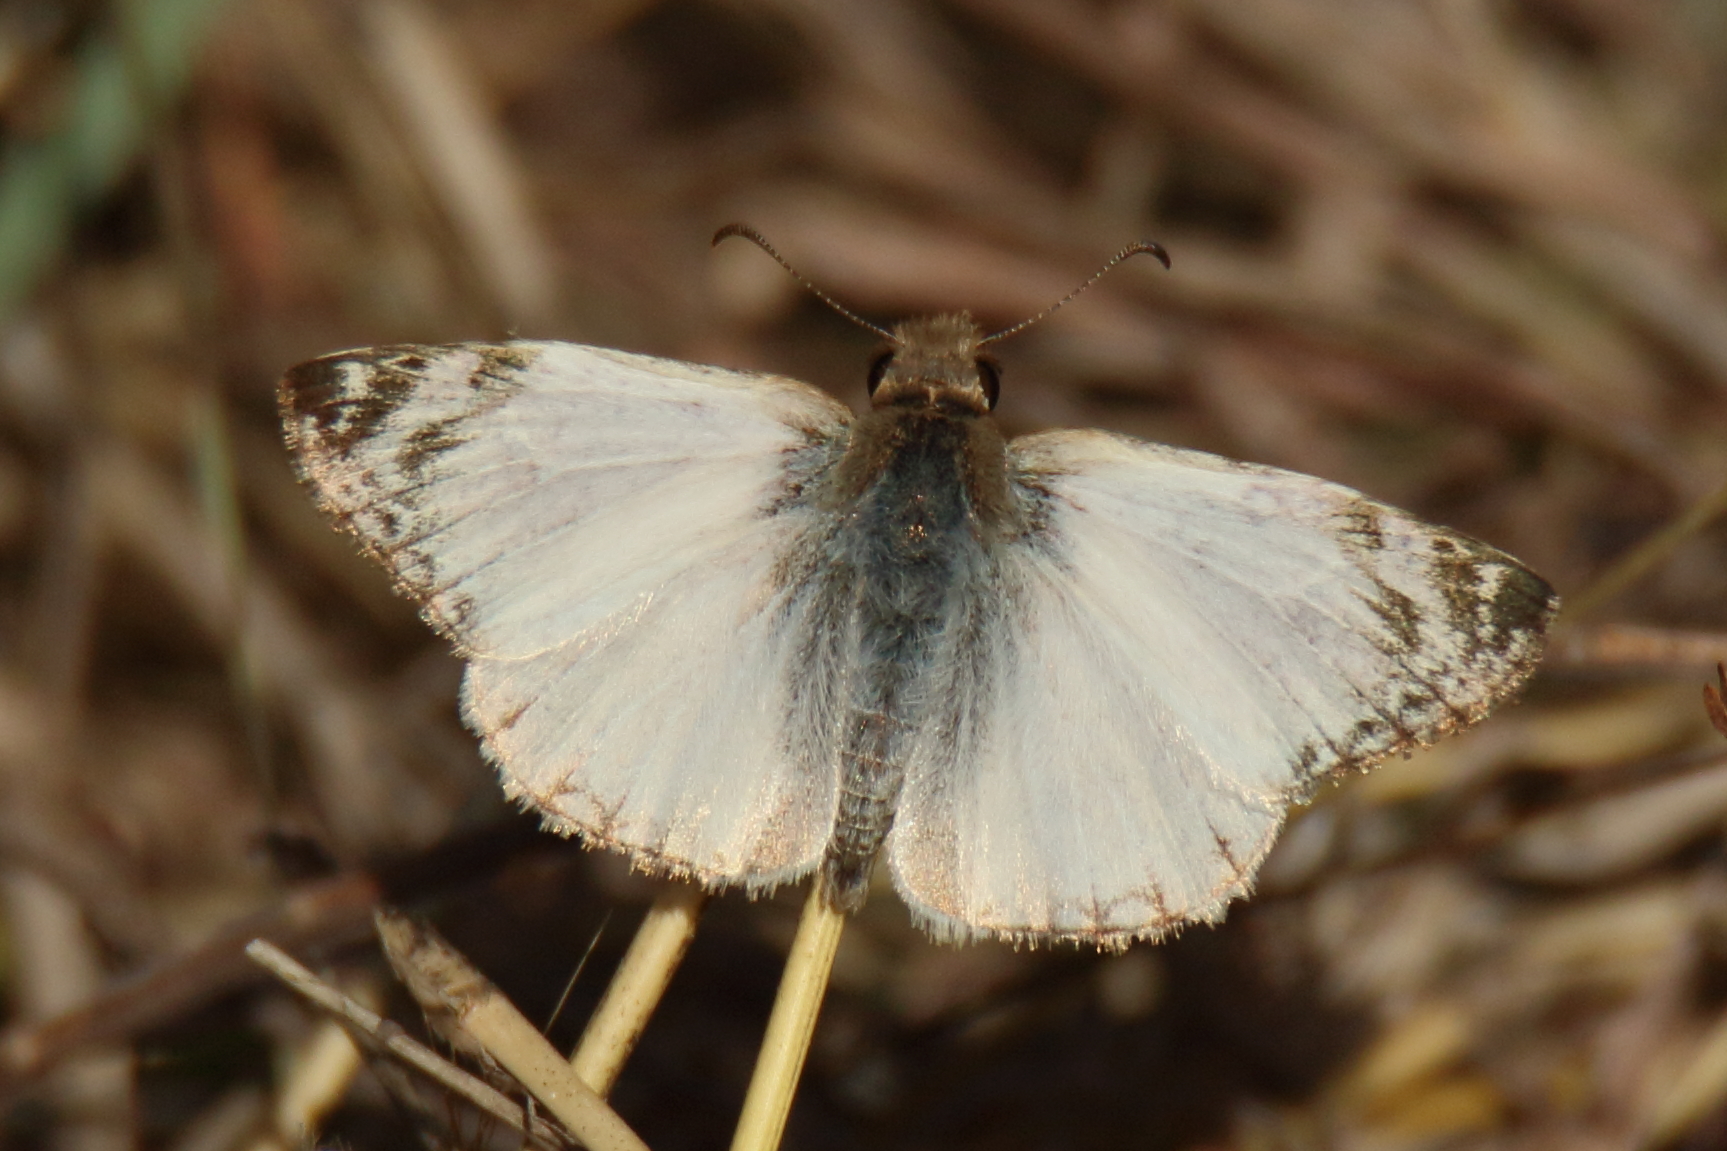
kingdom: Animalia
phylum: Arthropoda
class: Insecta
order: Lepidoptera
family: Hesperiidae
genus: Heliopetes
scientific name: Heliopetes laviana
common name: Laviana white-skipper
